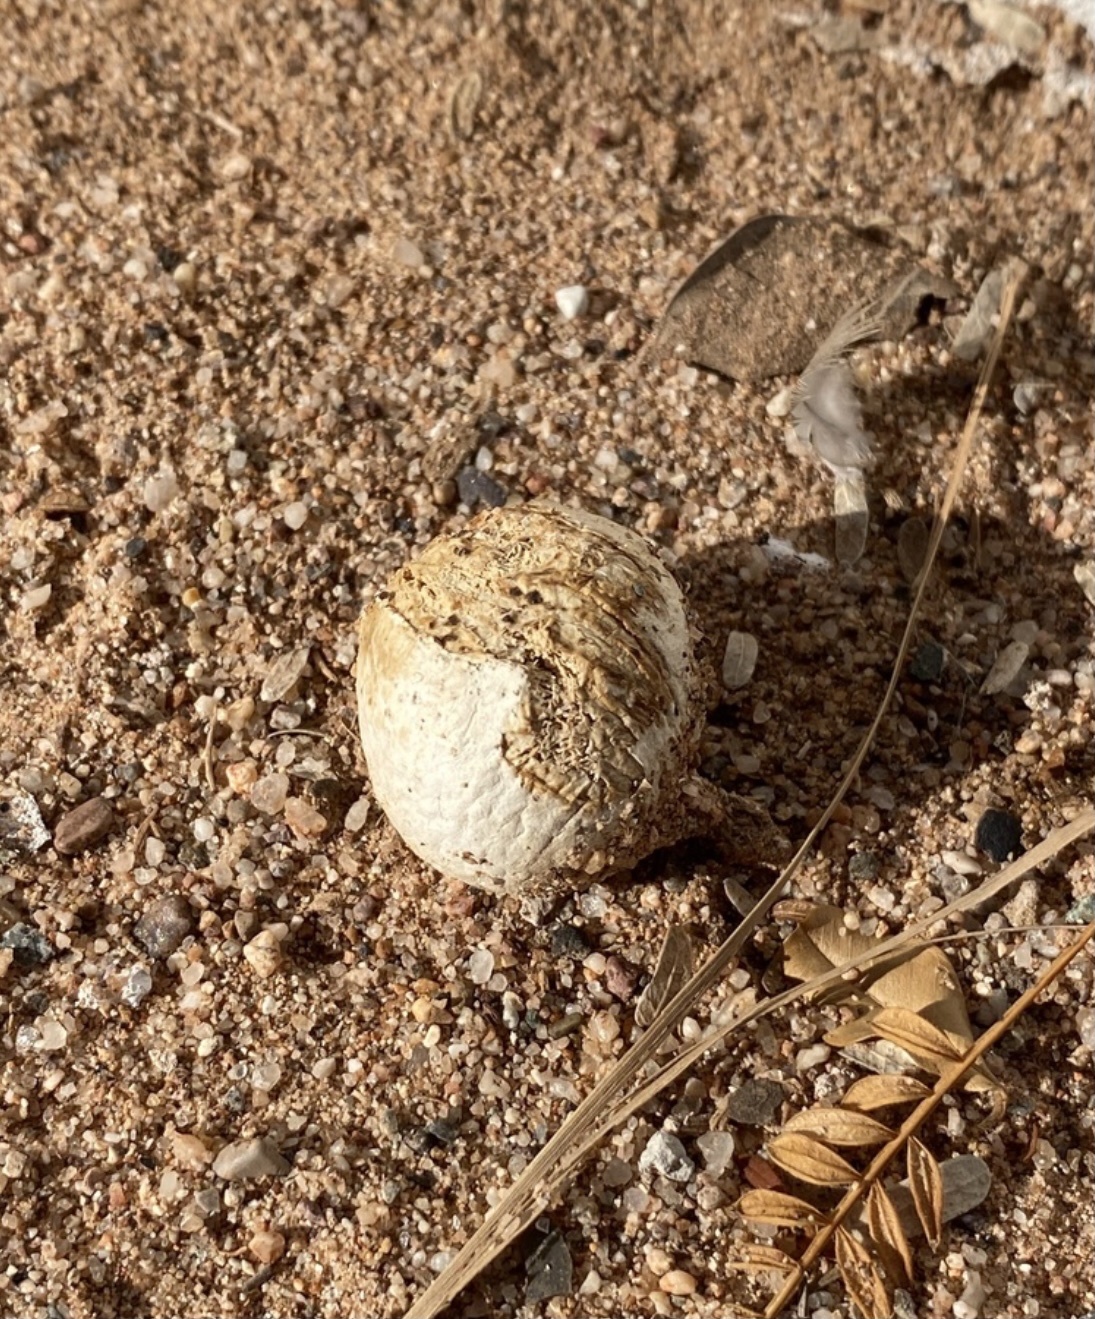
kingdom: Fungi
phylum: Basidiomycota
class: Agaricomycetes
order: Agaricales
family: Agaricaceae
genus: Chlorophyllum
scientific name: Chlorophyllum arizonicum
